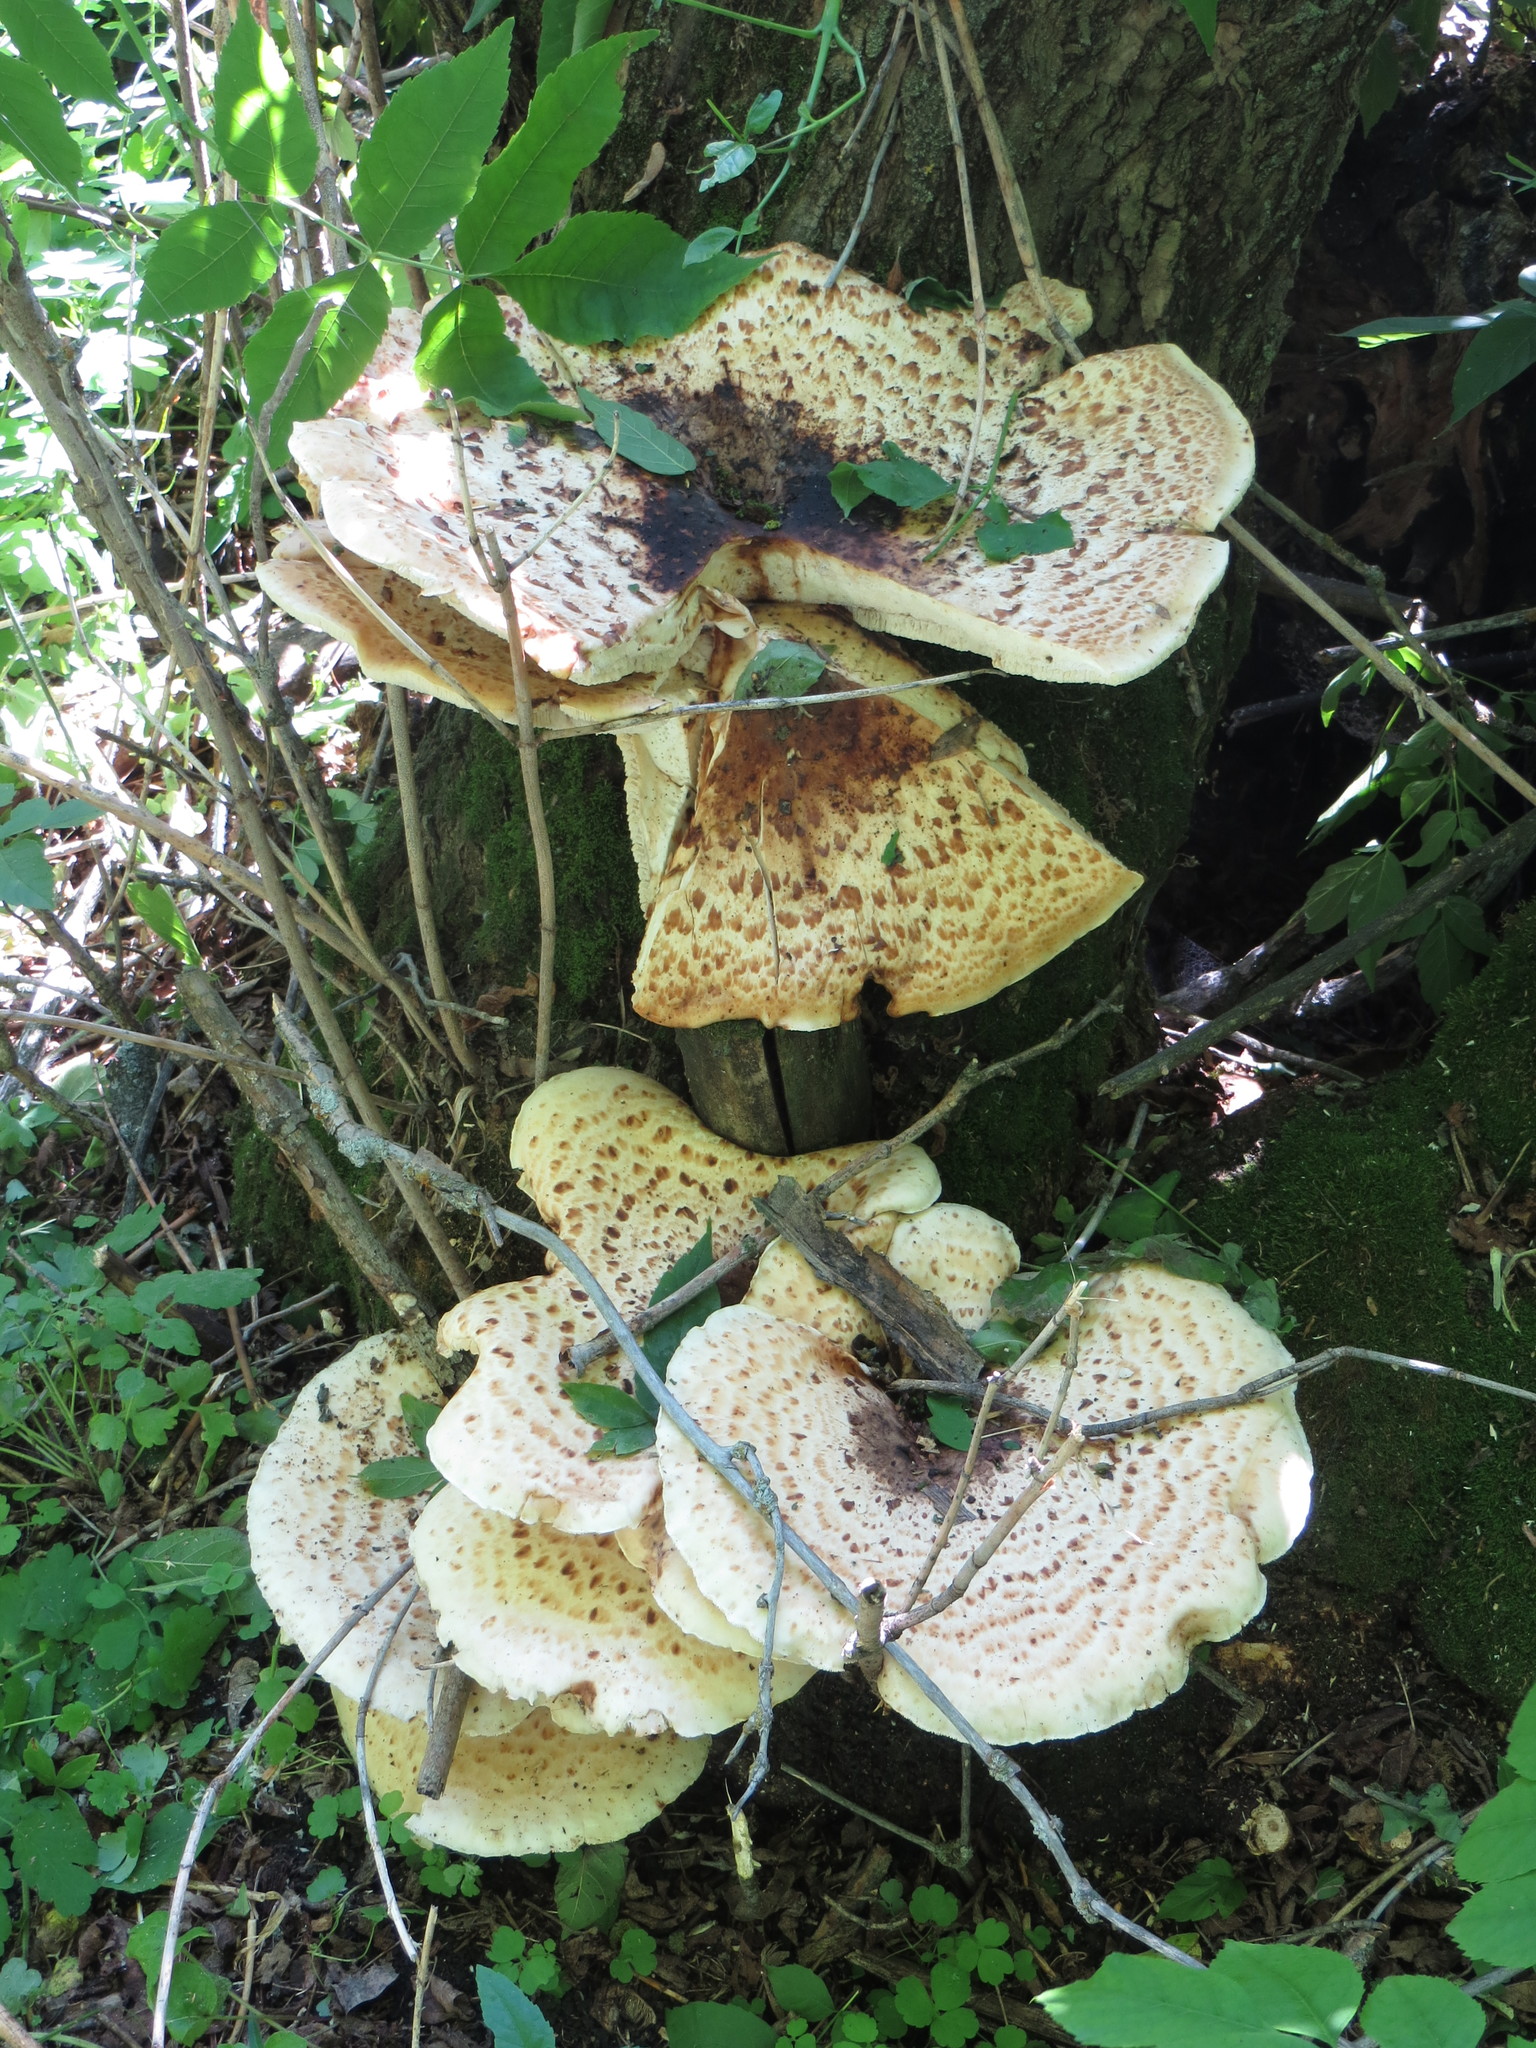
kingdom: Fungi
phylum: Basidiomycota
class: Agaricomycetes
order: Polyporales
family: Polyporaceae
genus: Cerioporus
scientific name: Cerioporus squamosus
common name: Dryad's saddle
